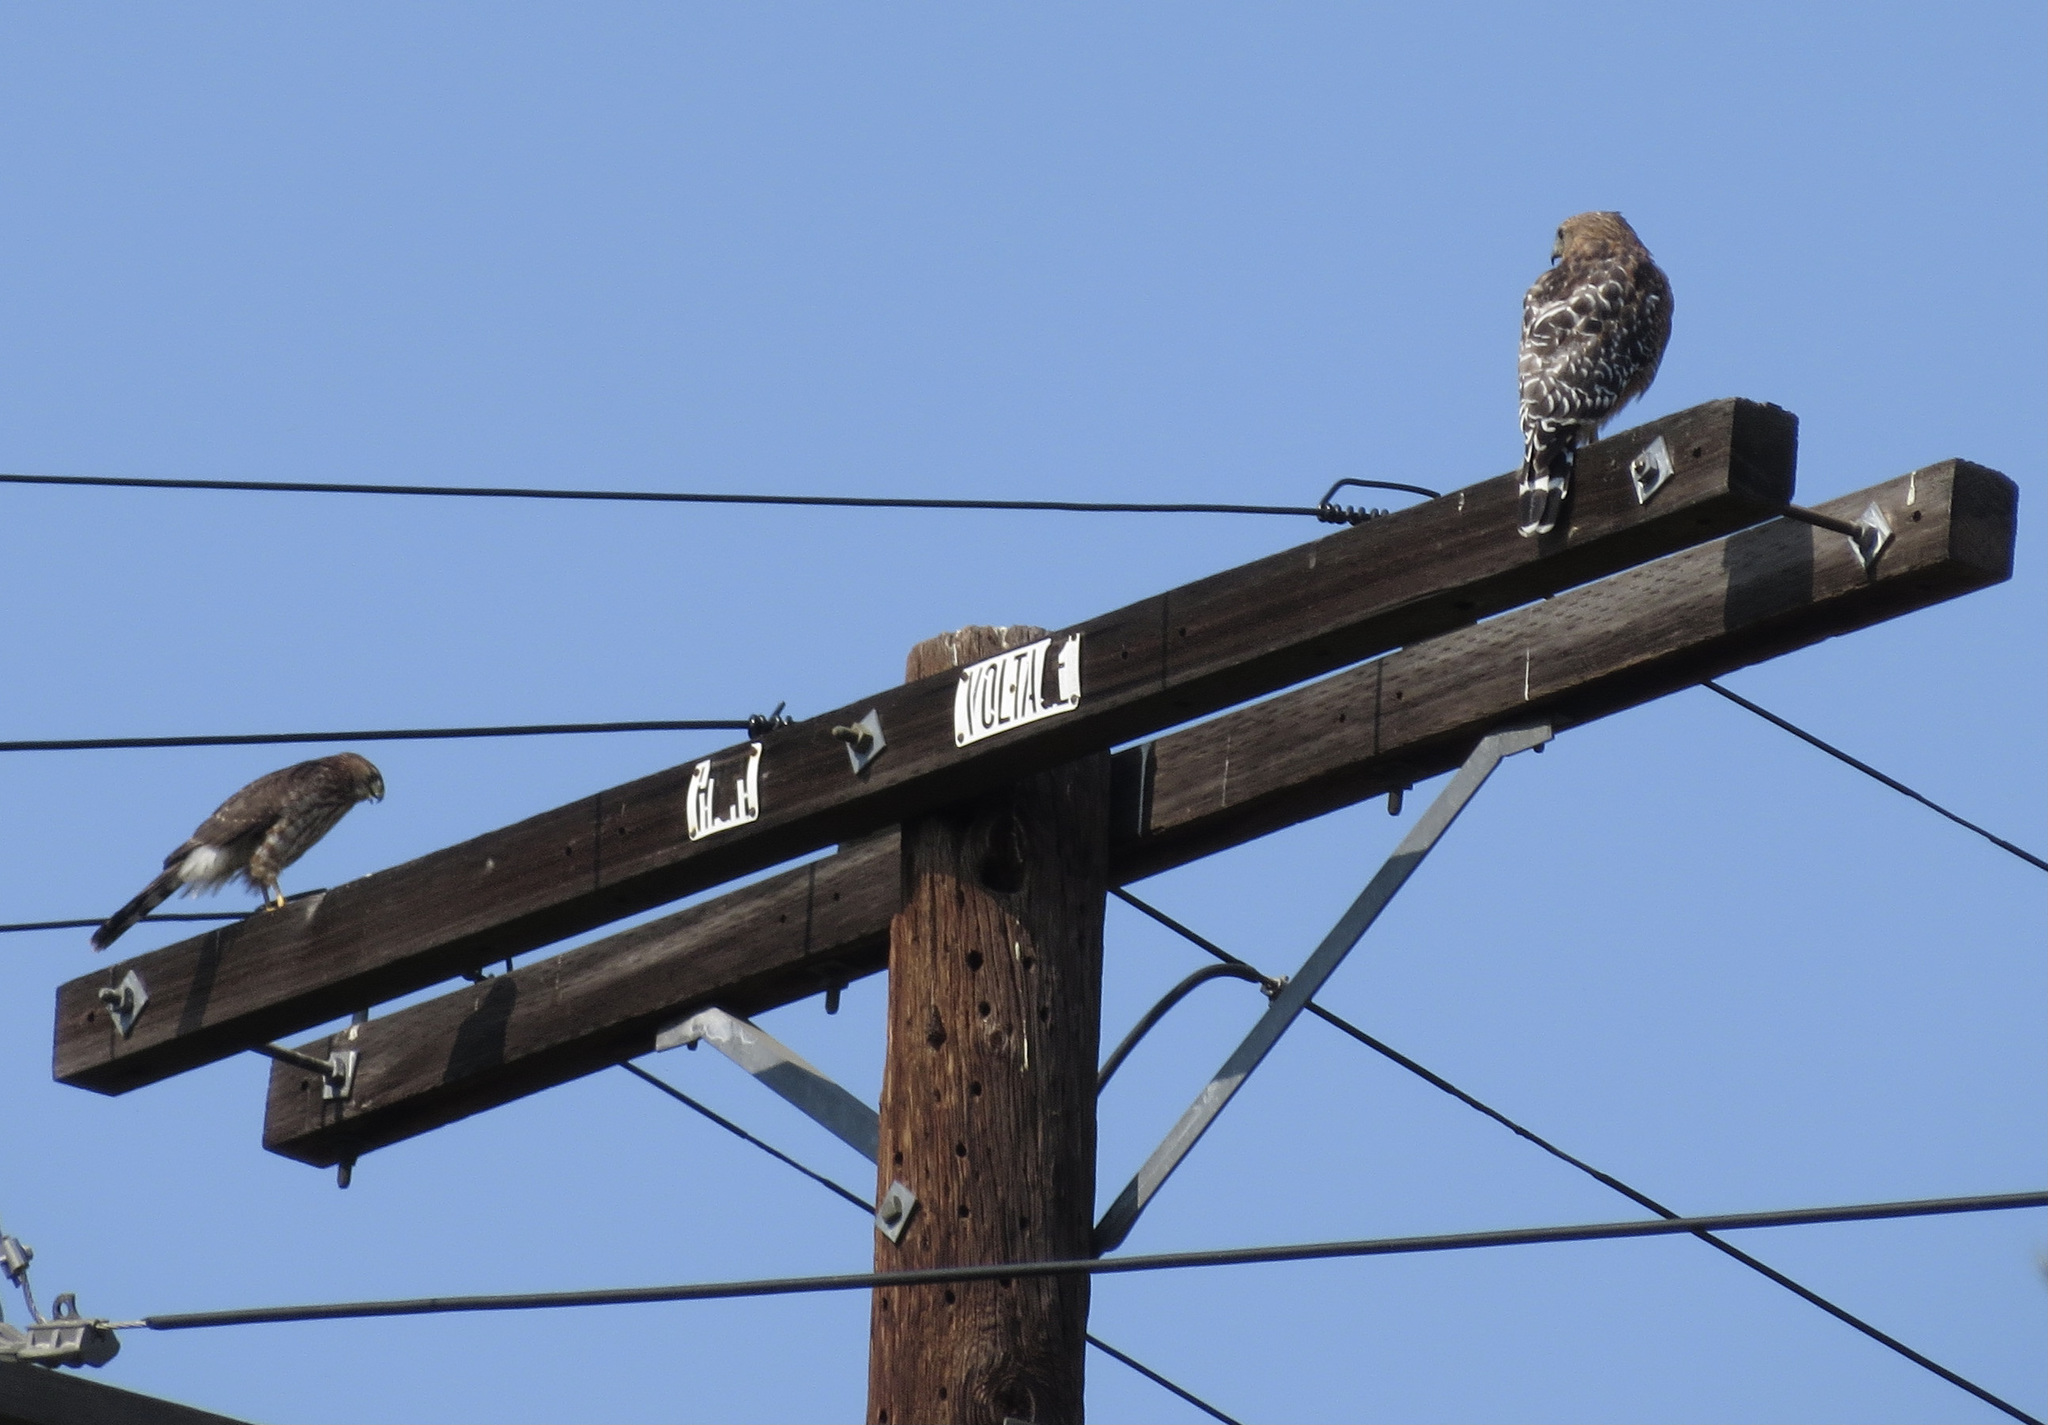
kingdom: Animalia
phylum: Chordata
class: Aves
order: Accipitriformes
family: Accipitridae
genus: Accipiter
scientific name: Accipiter cooperii
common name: Cooper's hawk
